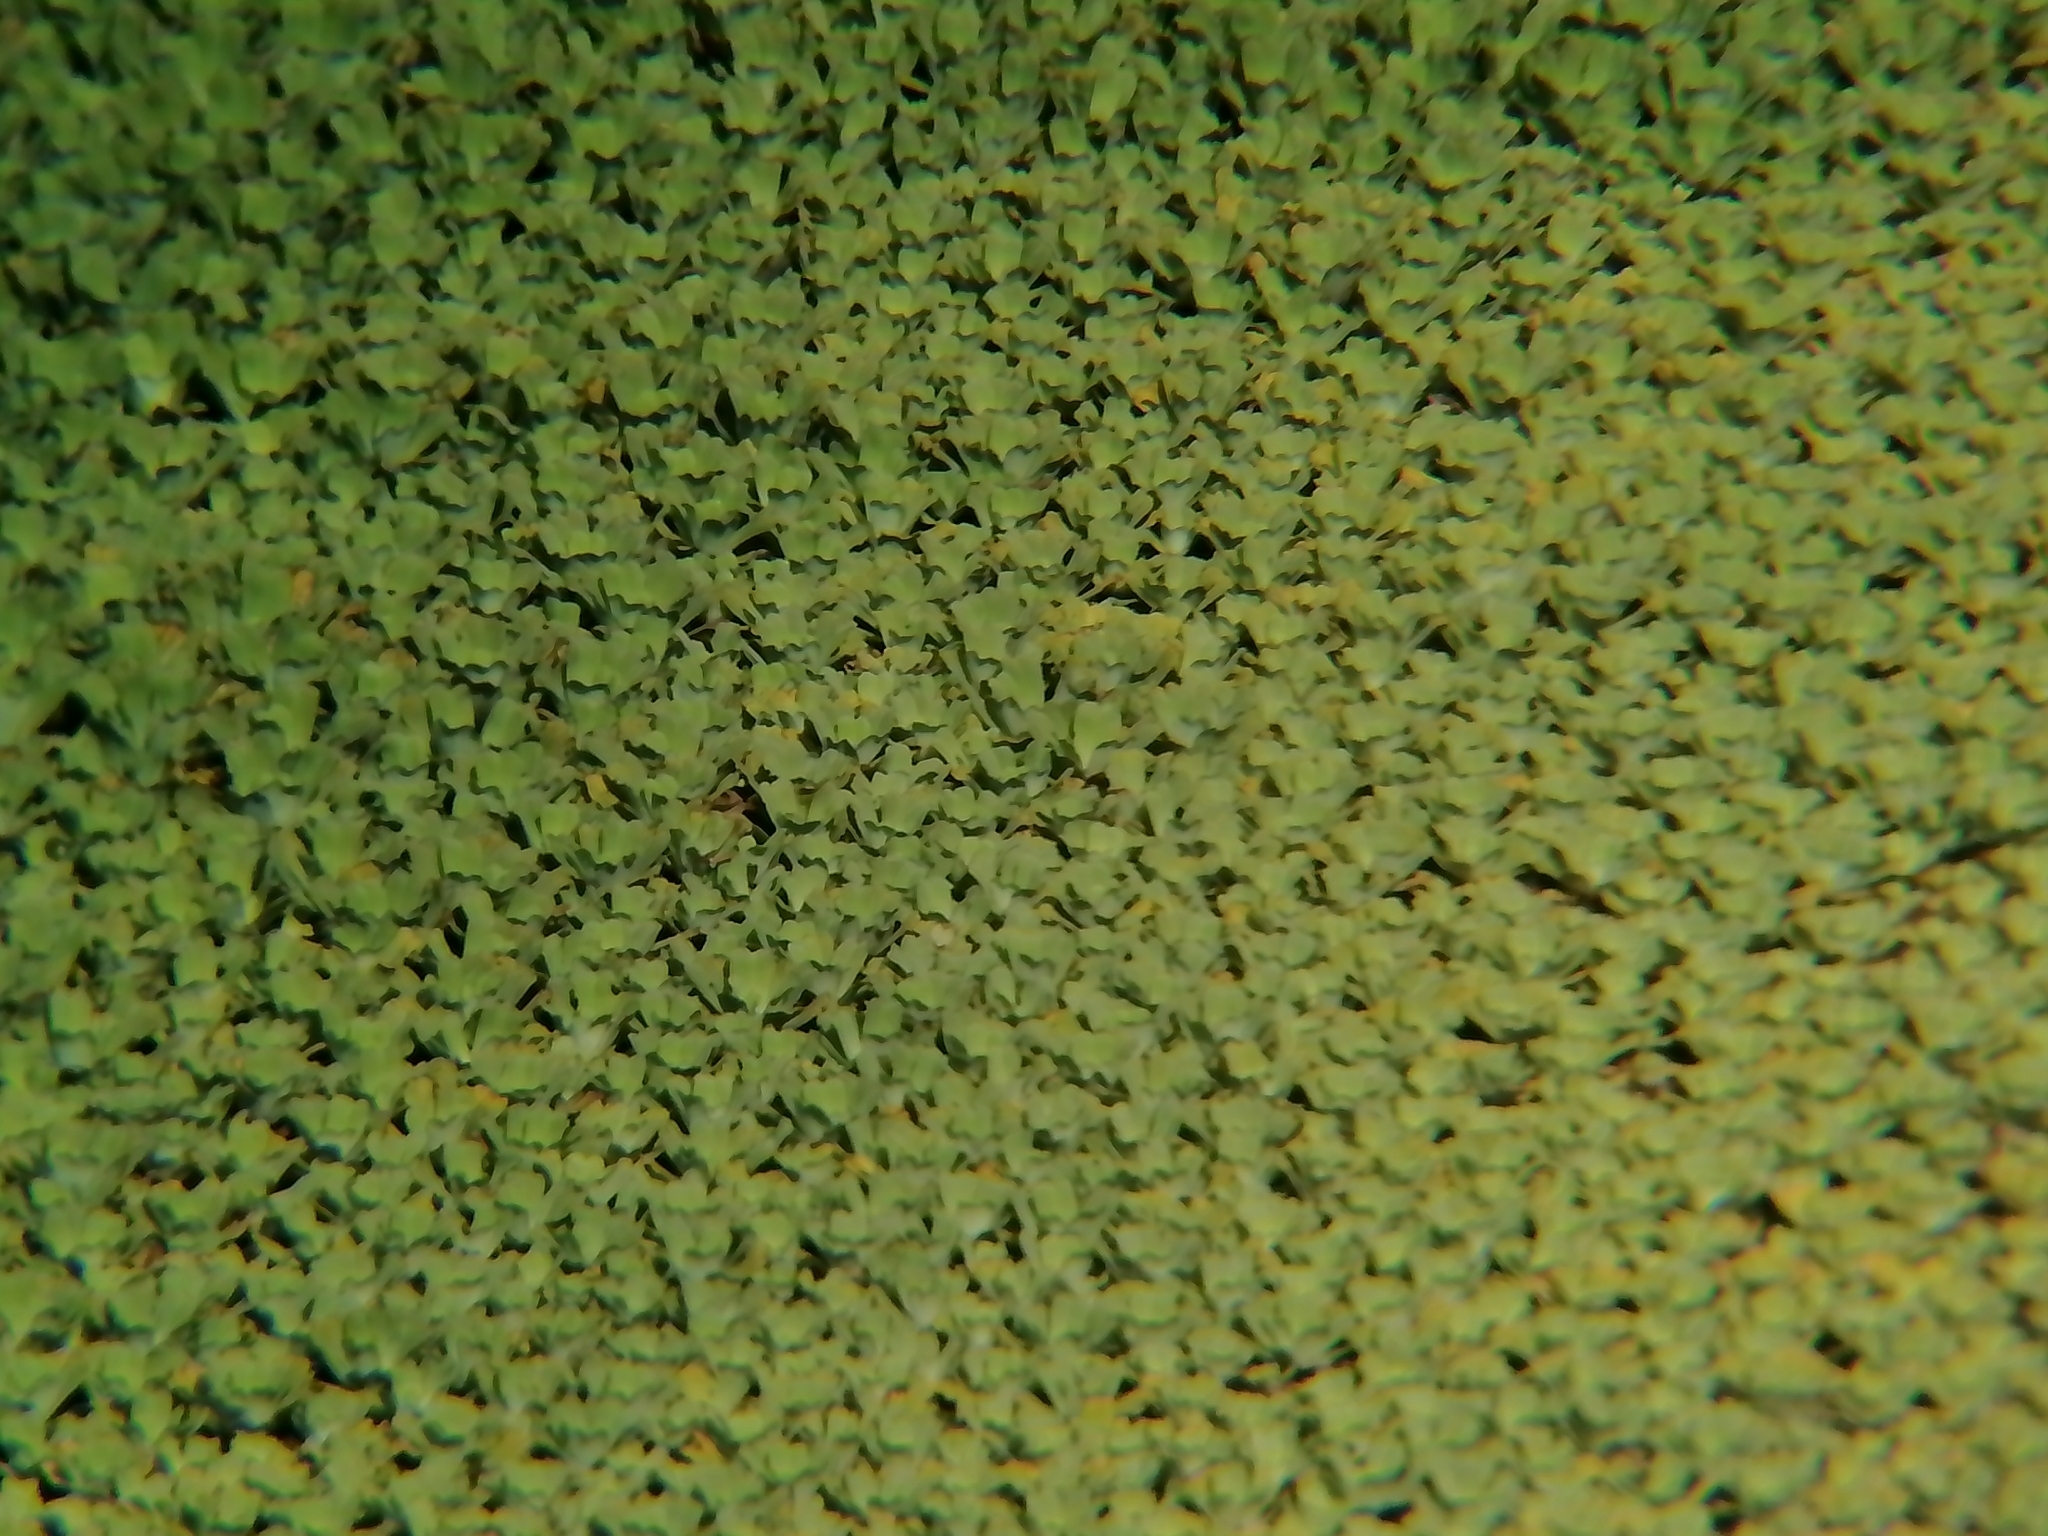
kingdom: Plantae
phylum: Tracheophyta
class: Liliopsida
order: Alismatales
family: Araceae
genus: Pistia
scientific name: Pistia stratiotes
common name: Water lettuce
